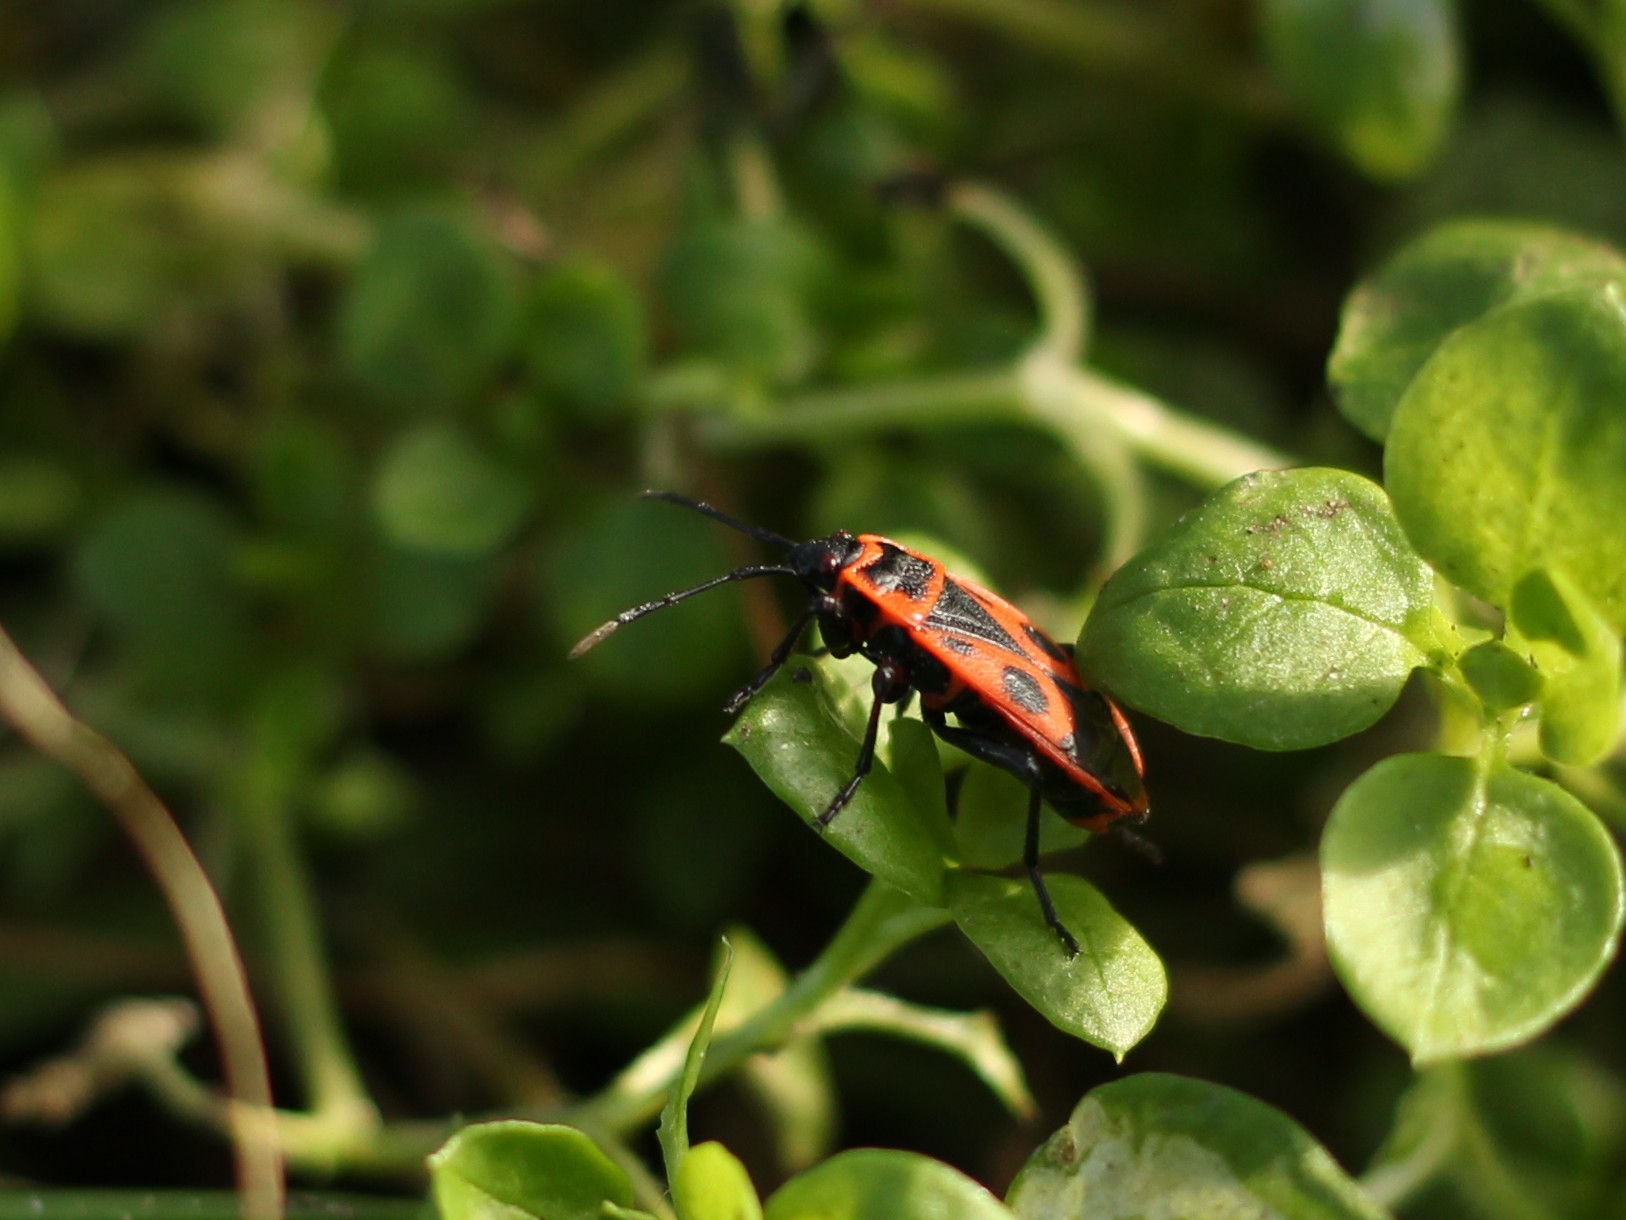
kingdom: Animalia
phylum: Arthropoda
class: Insecta
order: Hemiptera
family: Pyrrhocoridae
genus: Pyrrhocoris
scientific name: Pyrrhocoris apterus
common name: Firebug
